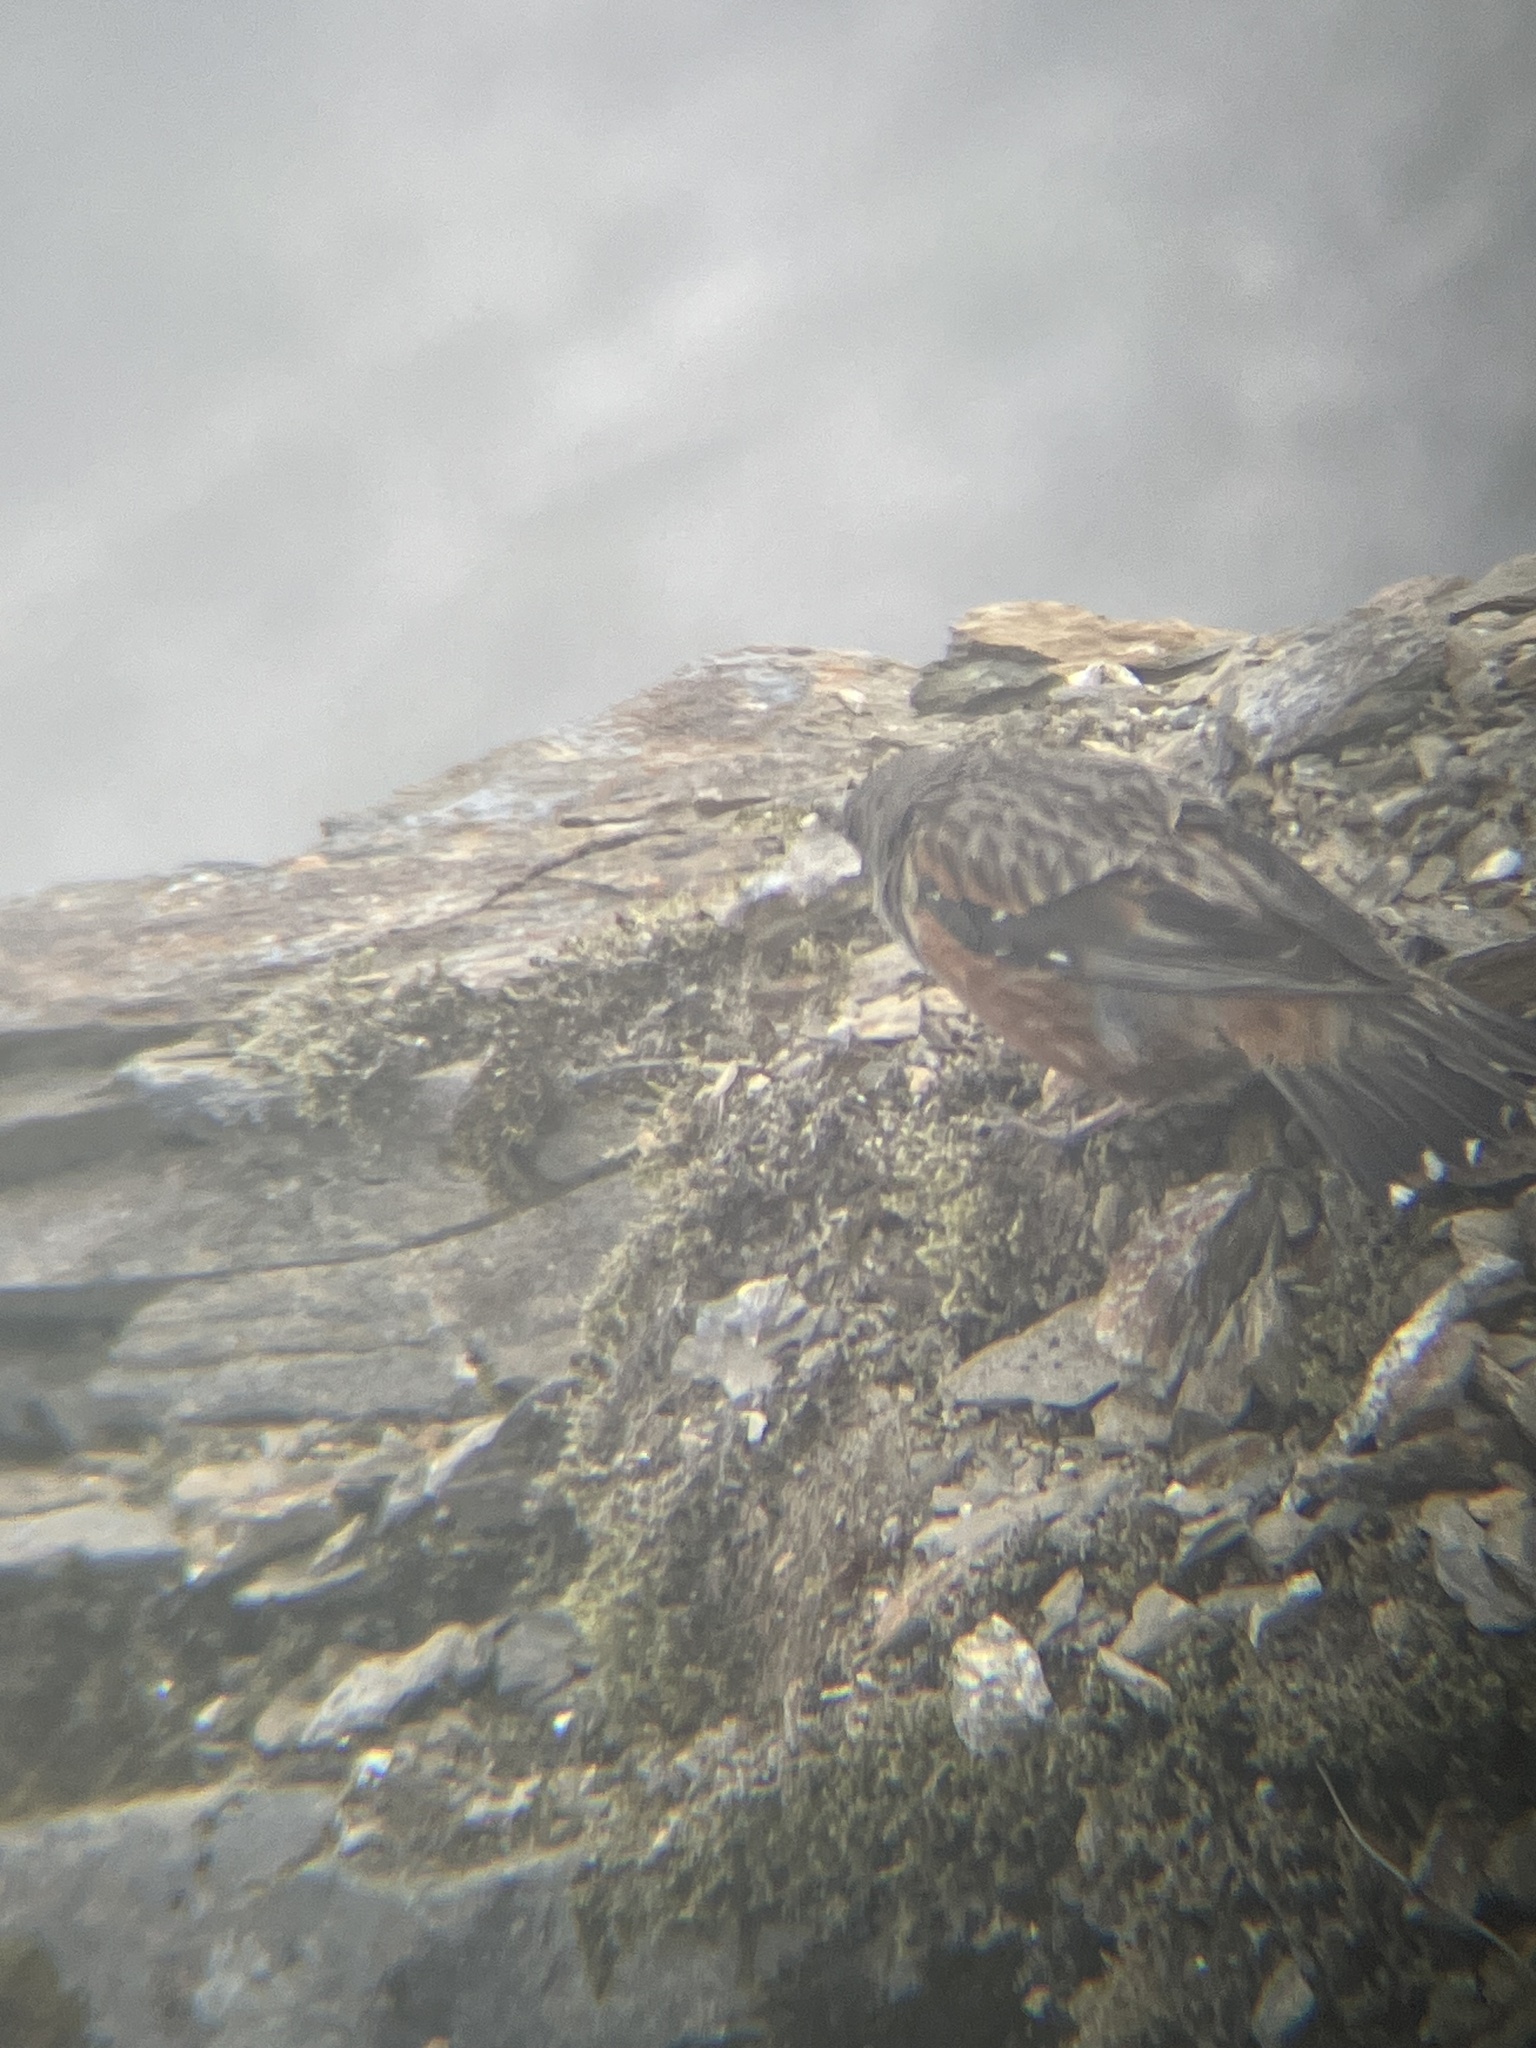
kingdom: Animalia
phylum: Chordata
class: Aves
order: Passeriformes
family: Prunellidae
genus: Prunella
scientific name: Prunella collaris
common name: Alpine accentor
